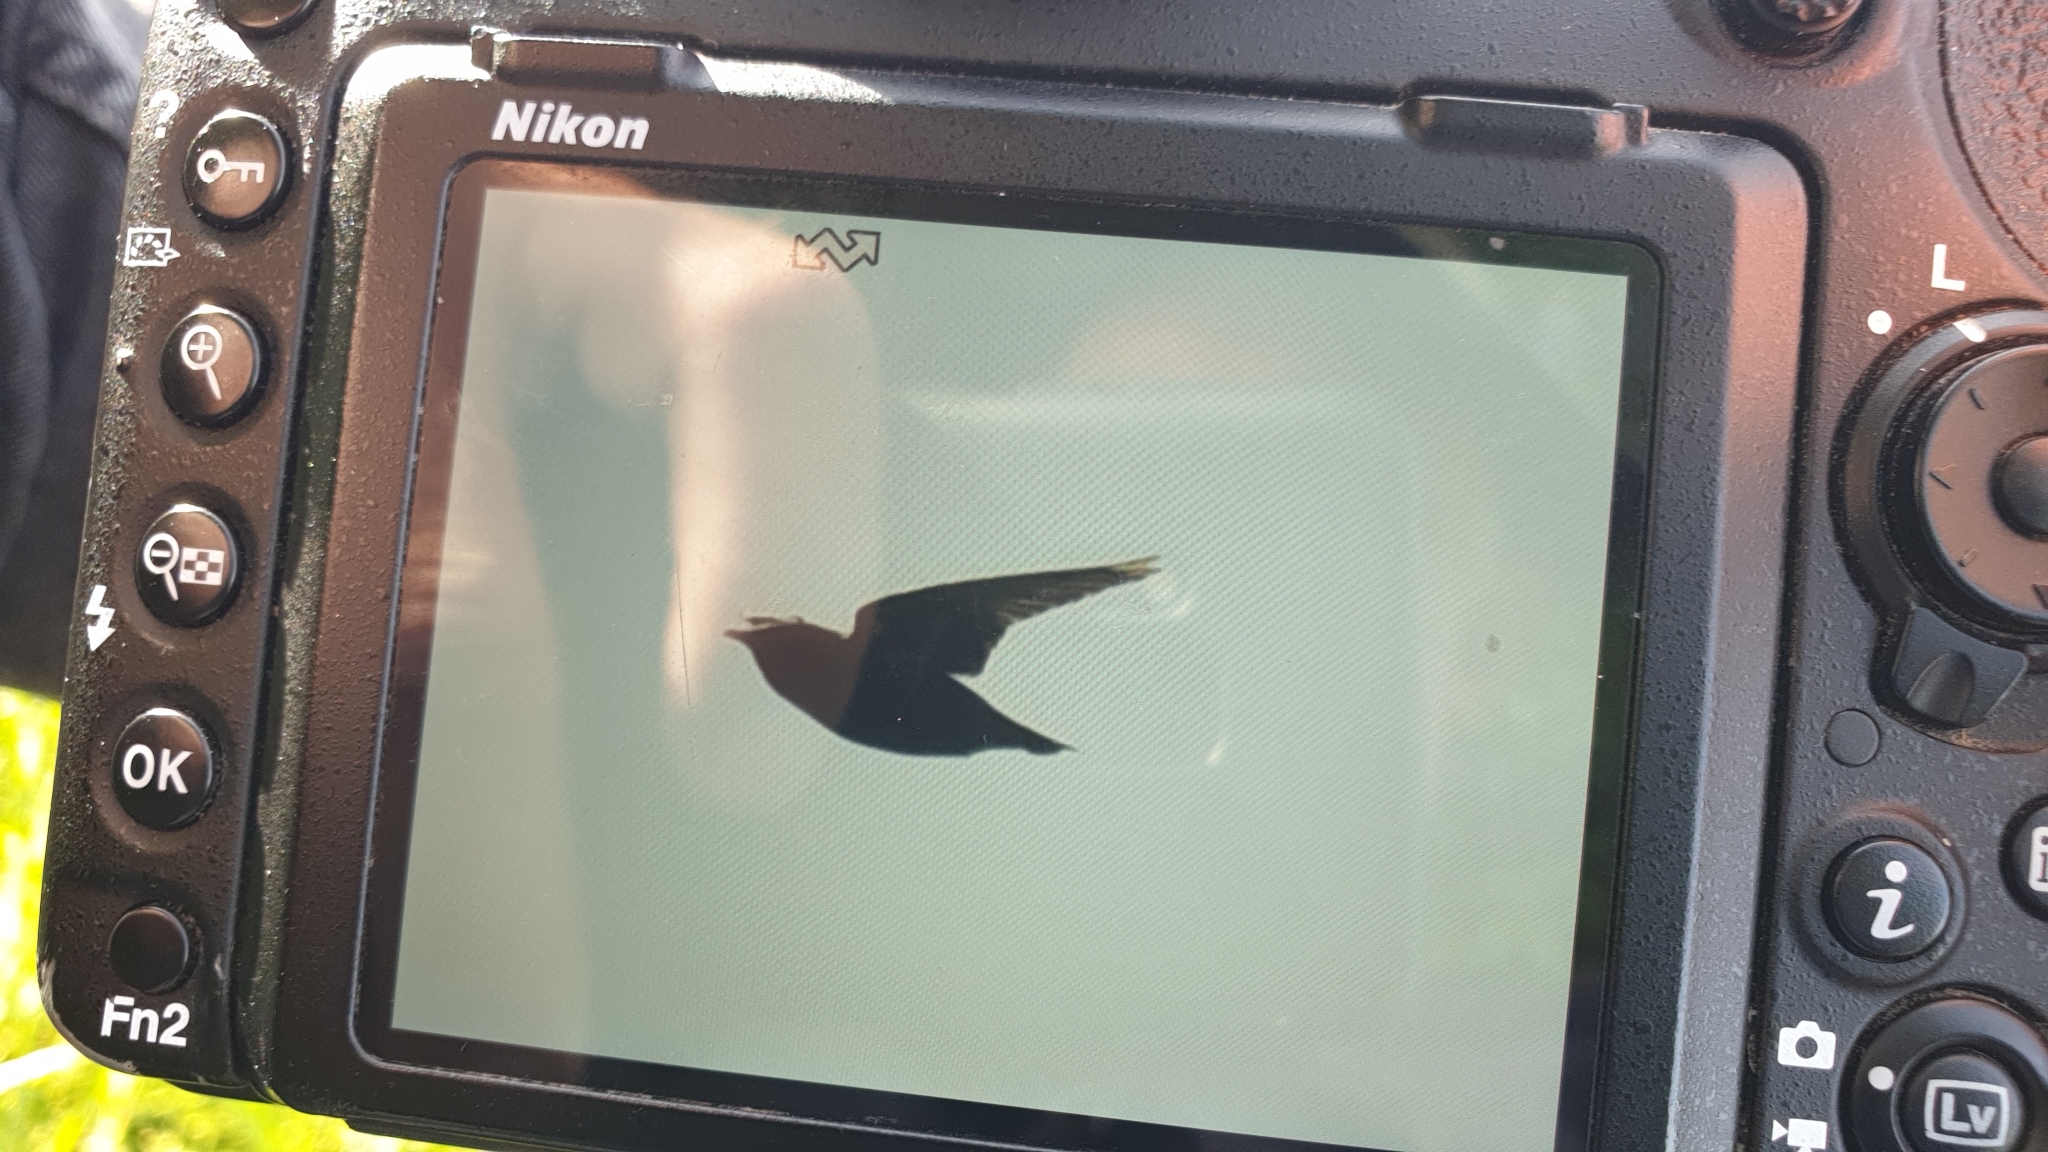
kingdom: Animalia
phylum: Chordata
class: Aves
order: Passeriformes
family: Sturnidae
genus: Sturnus
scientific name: Sturnus vulgaris
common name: Common starling
